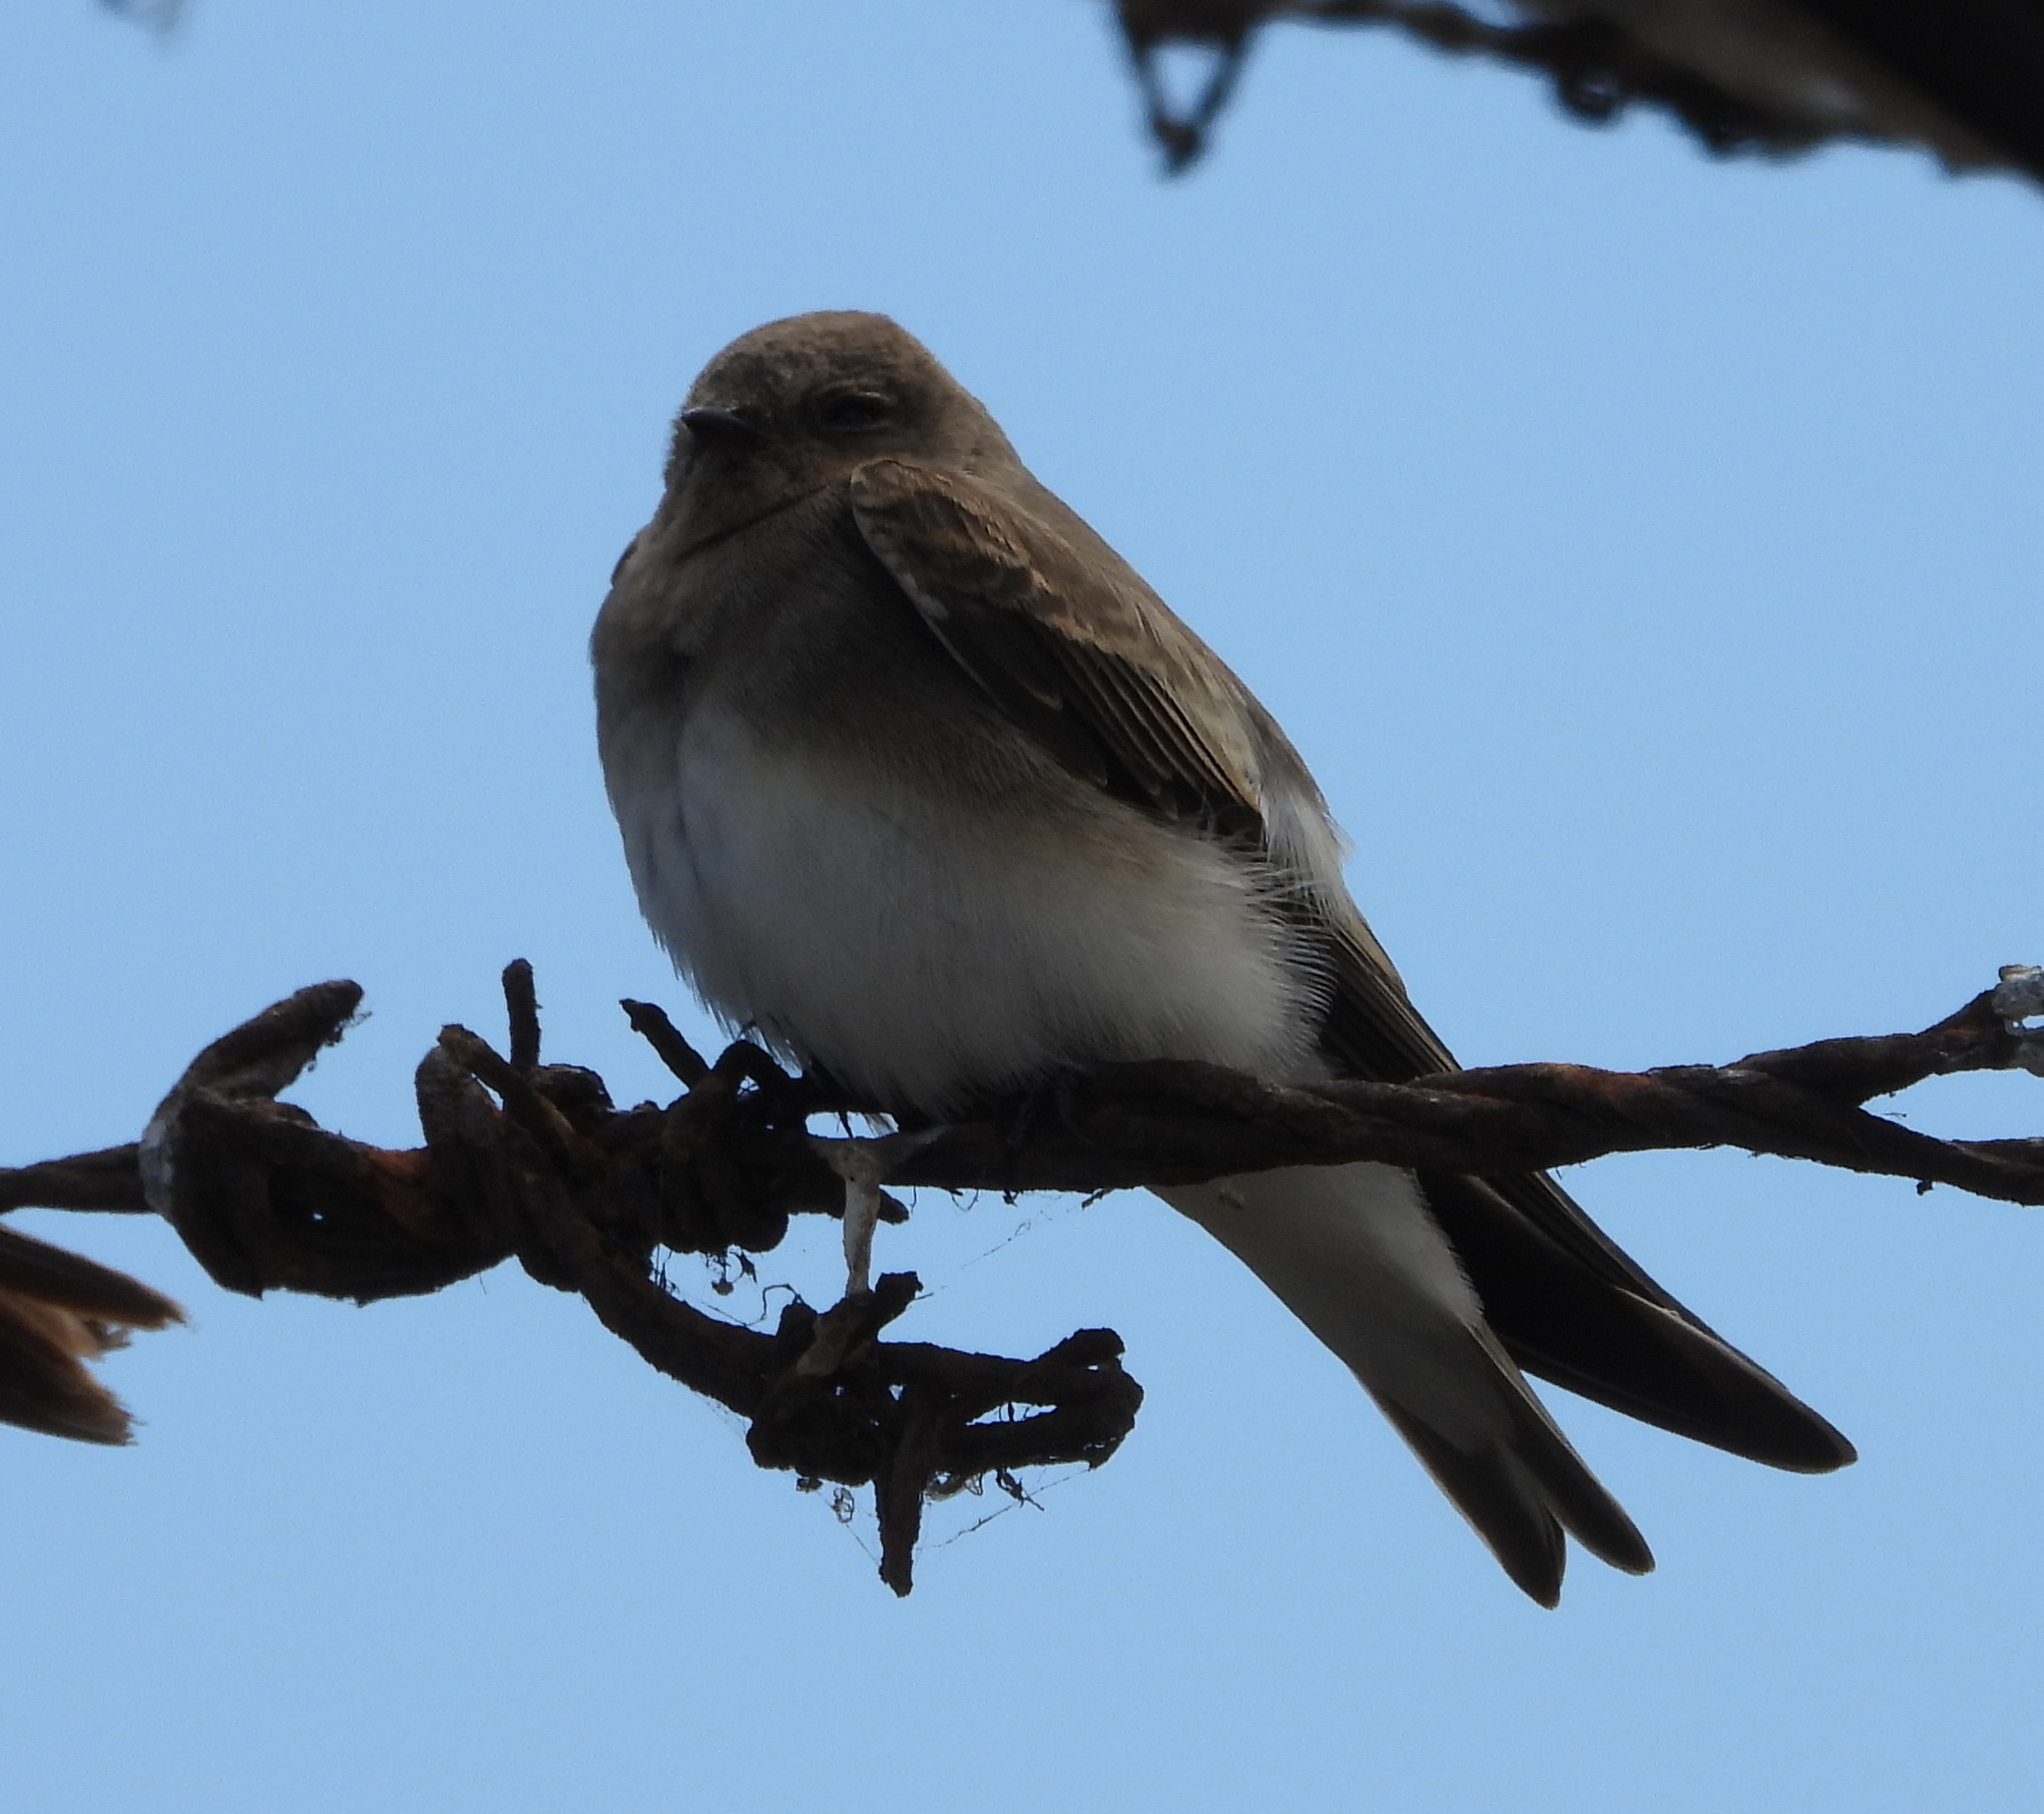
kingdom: Animalia
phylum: Chordata
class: Aves
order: Passeriformes
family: Hirundinidae
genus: Riparia
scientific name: Riparia paludicola
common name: Brown-throated martin
